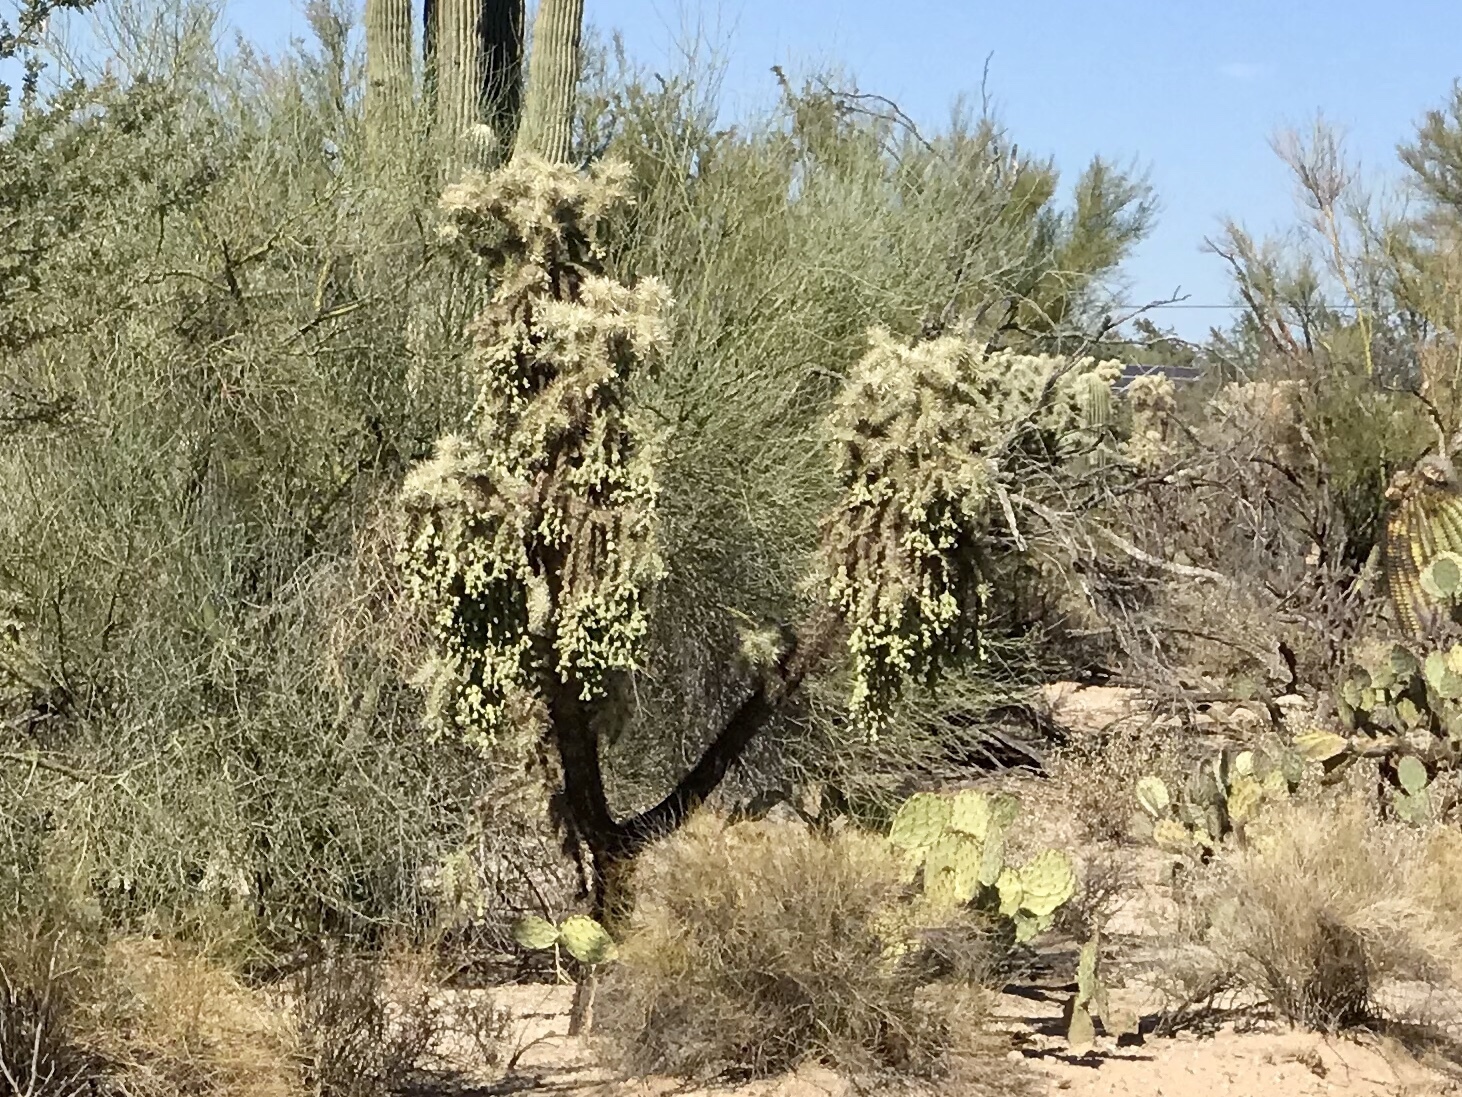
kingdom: Plantae
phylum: Tracheophyta
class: Magnoliopsida
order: Caryophyllales
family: Cactaceae
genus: Cylindropuntia
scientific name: Cylindropuntia fulgida
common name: Jumping cholla
